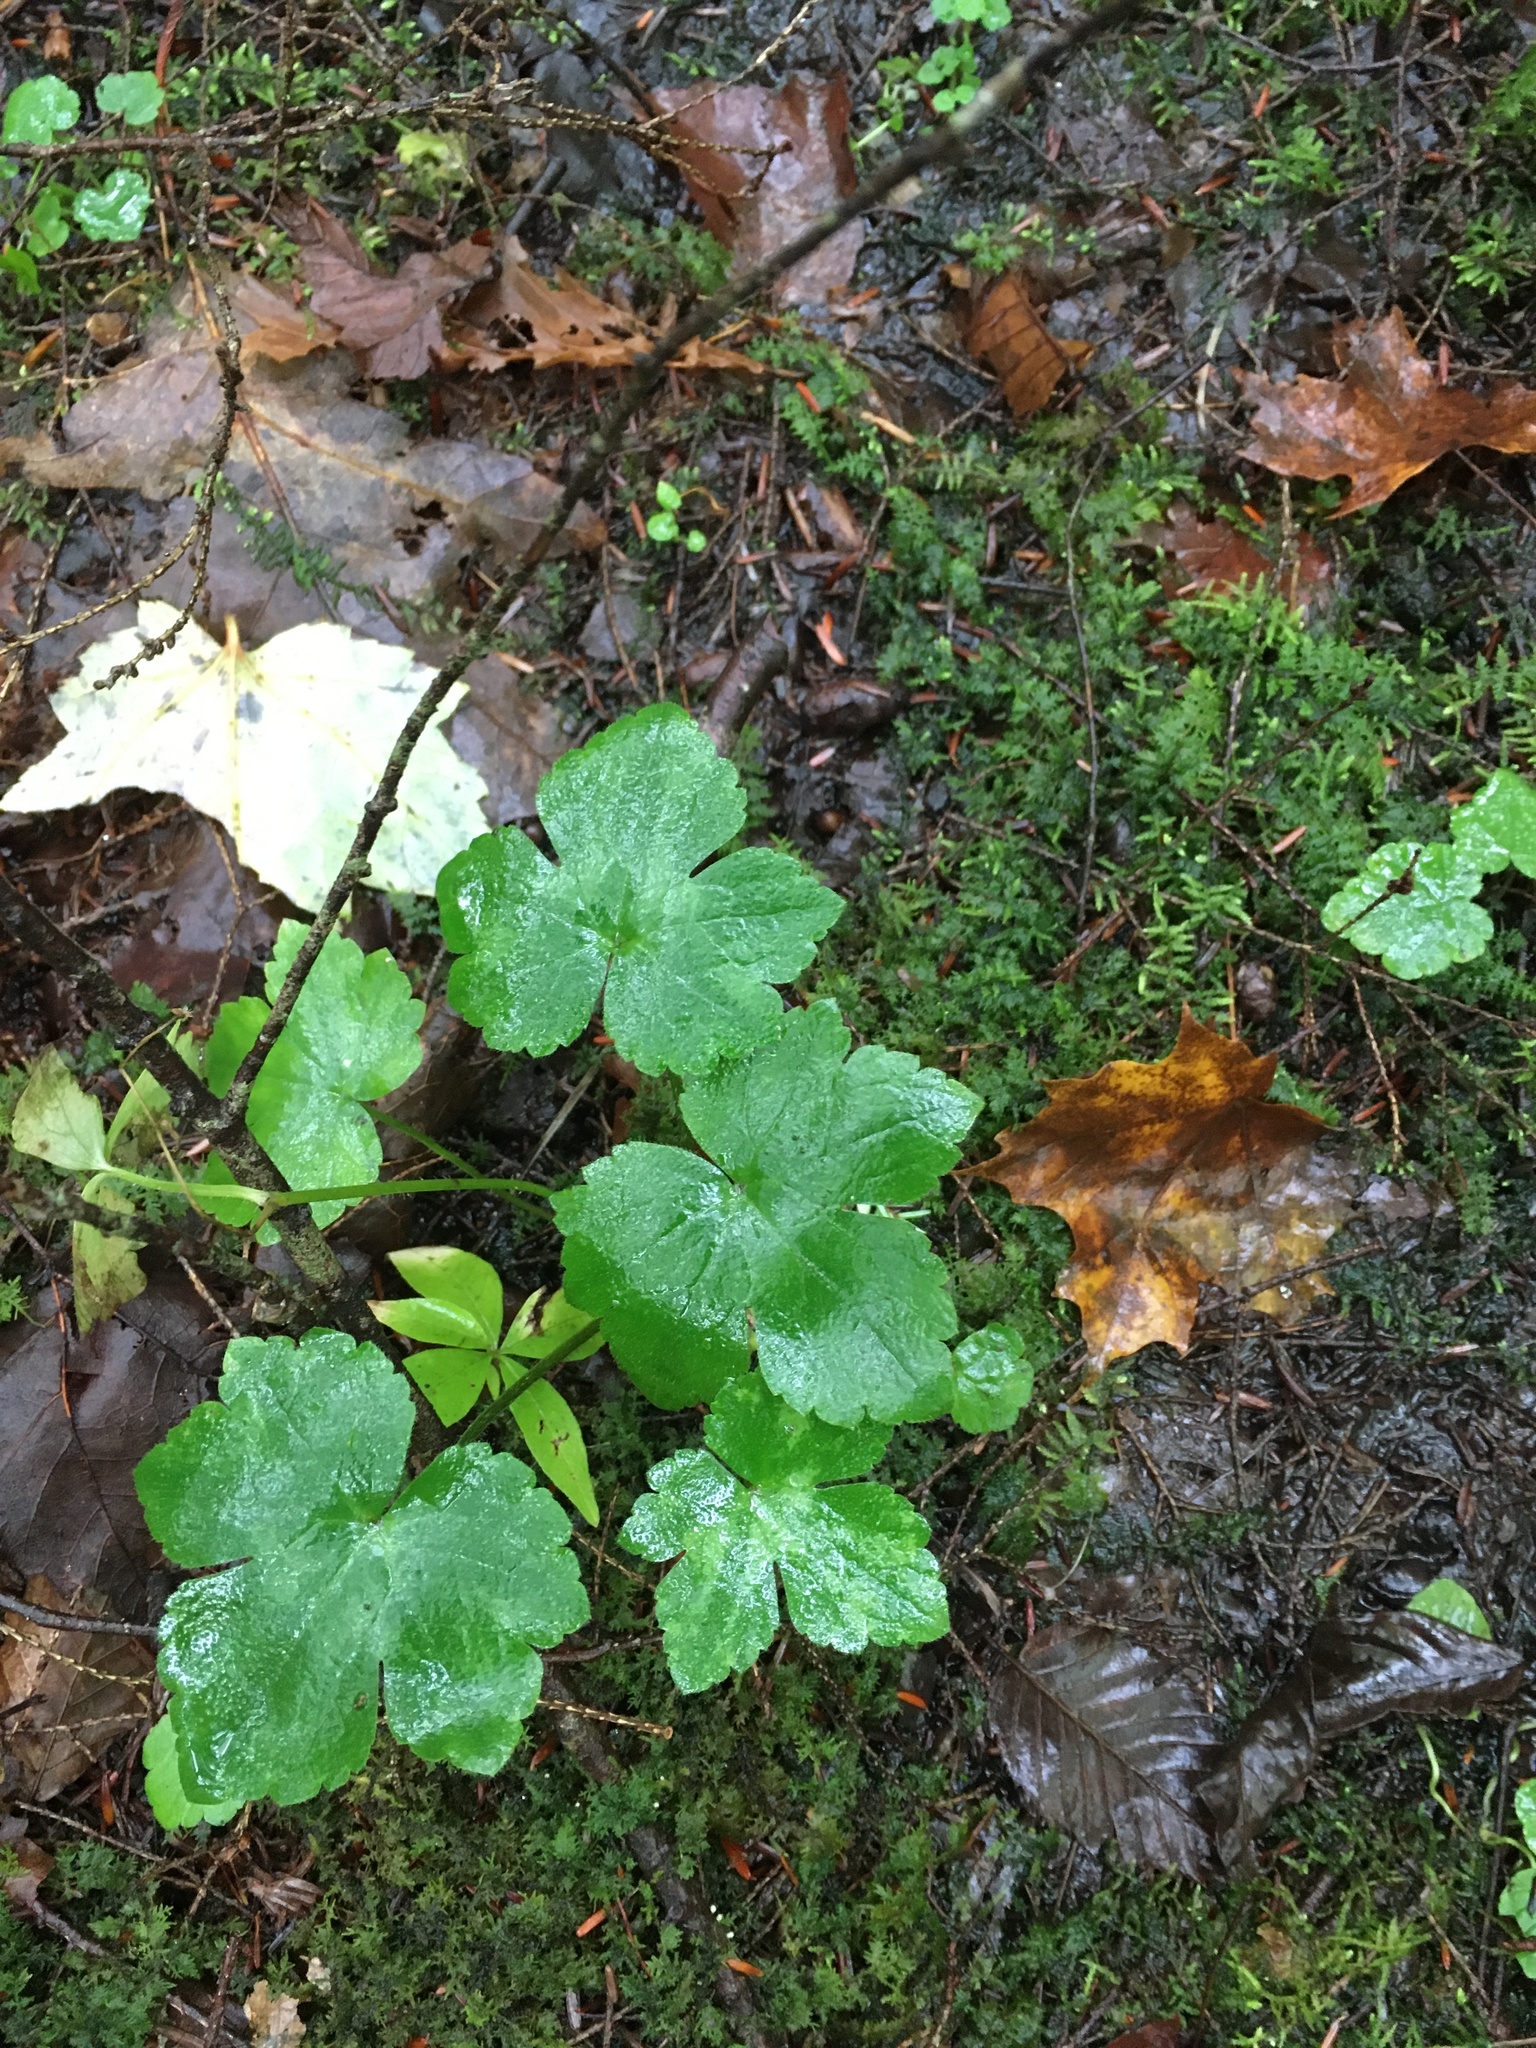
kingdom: Plantae
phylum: Tracheophyta
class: Magnoliopsida
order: Ranunculales
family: Ranunculaceae
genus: Ranunculus
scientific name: Ranunculus recurvatus
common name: Blisterwort
